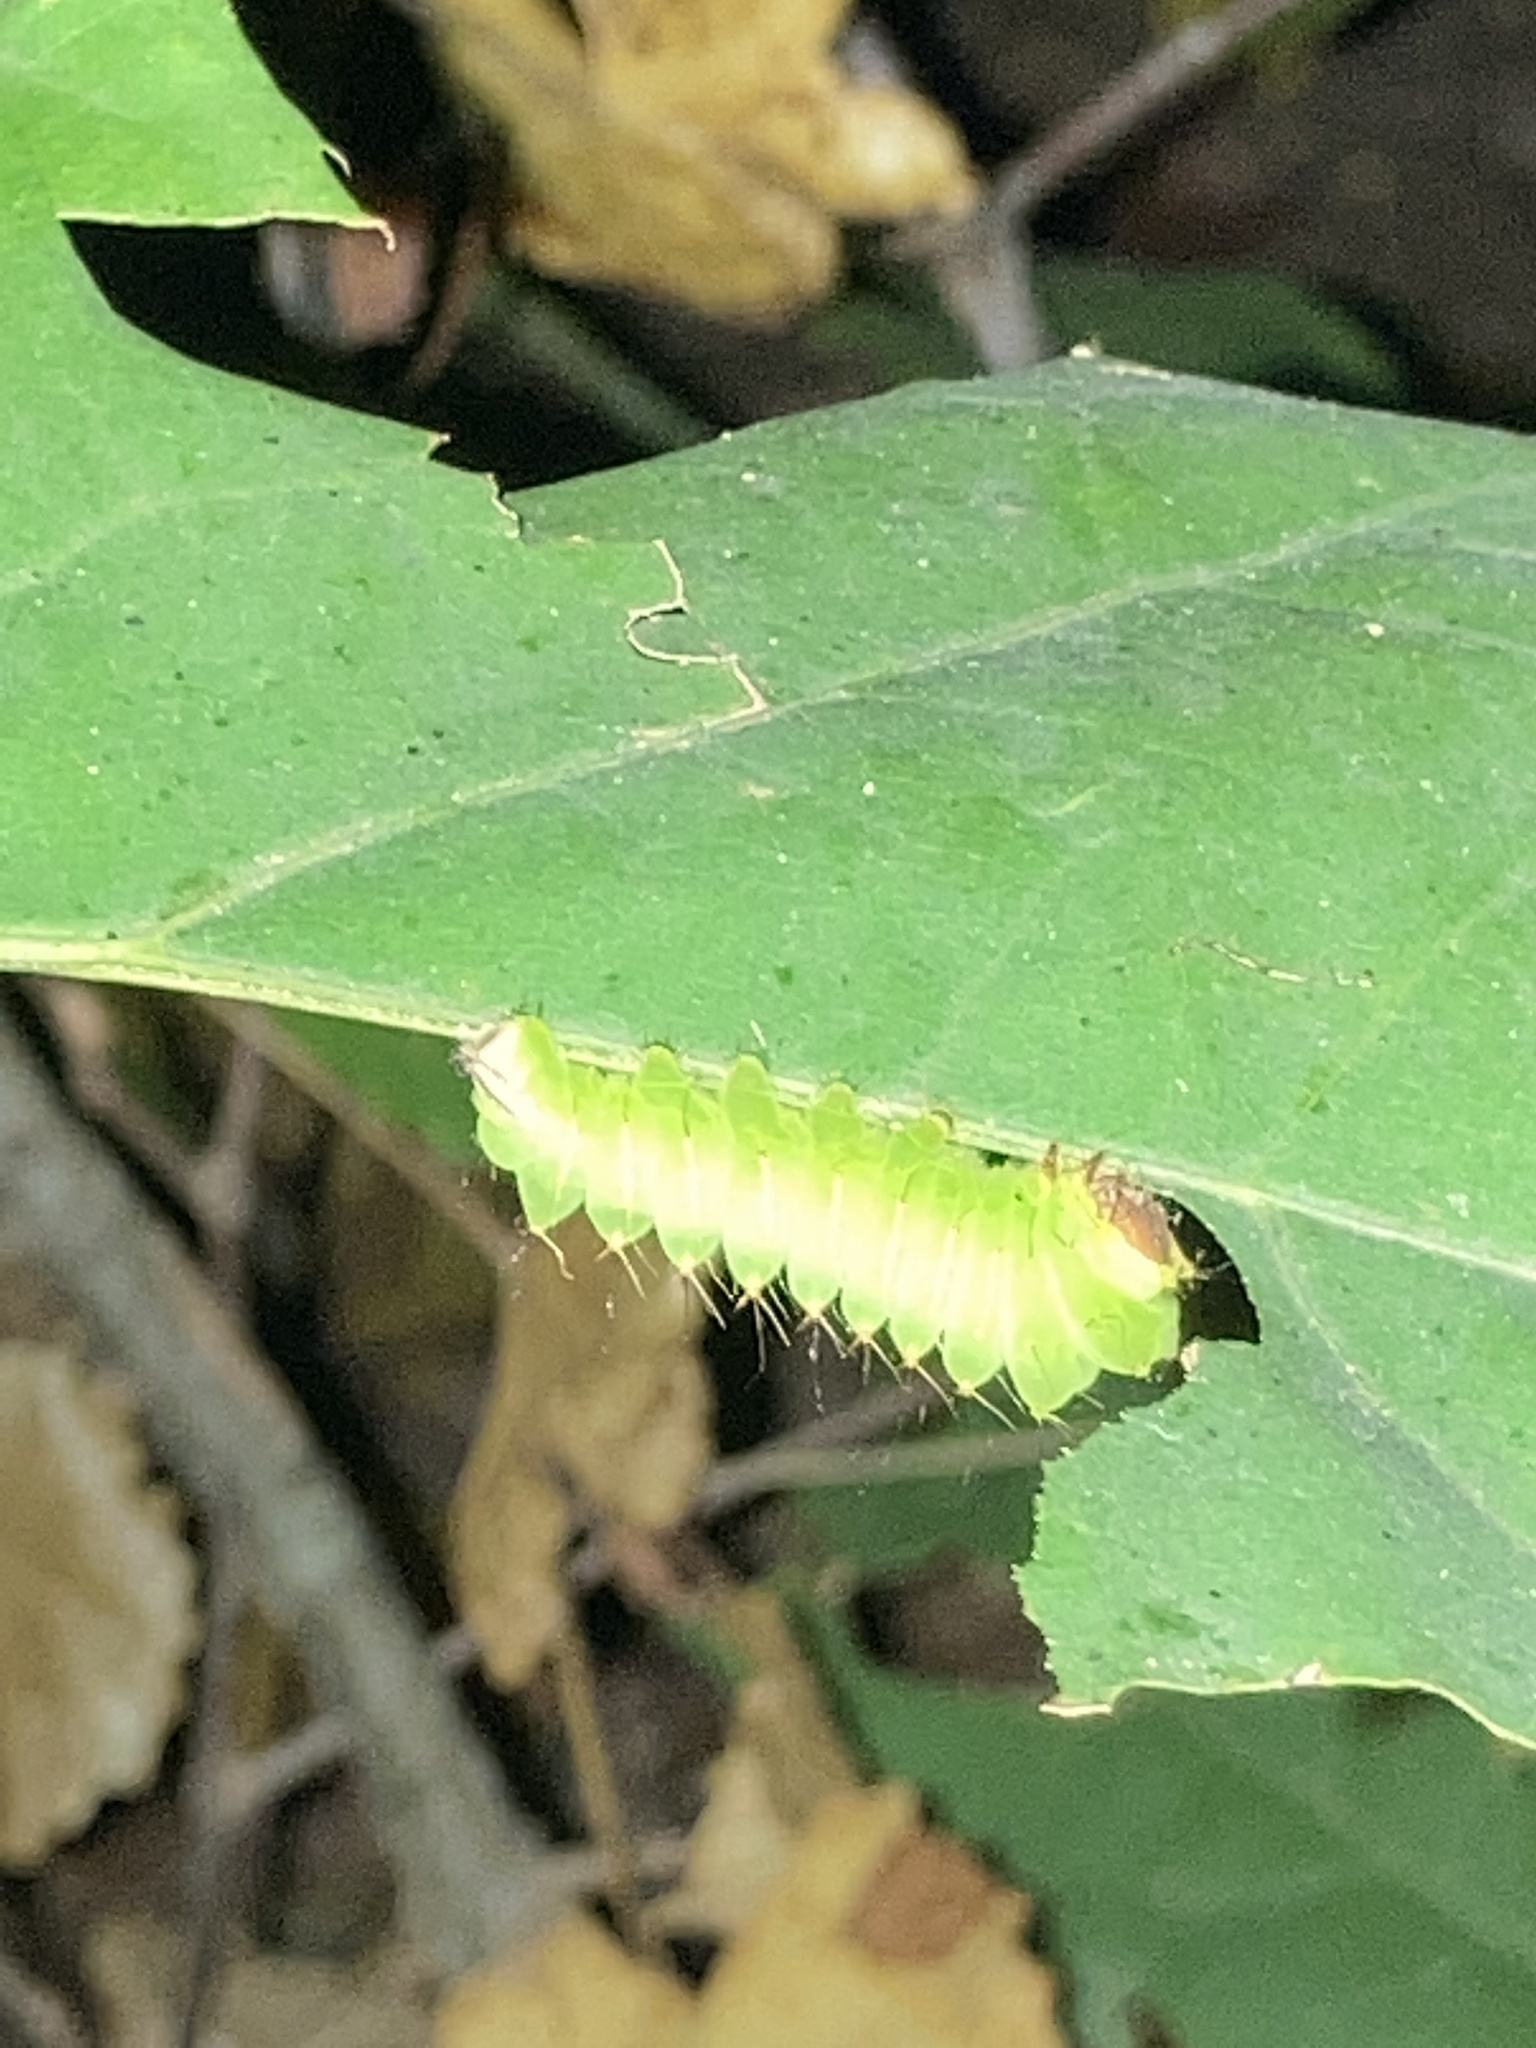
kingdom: Animalia
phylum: Arthropoda
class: Insecta
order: Lepidoptera
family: Saturniidae
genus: Antheraea
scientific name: Antheraea polyphemus
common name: Polyphemus moth
